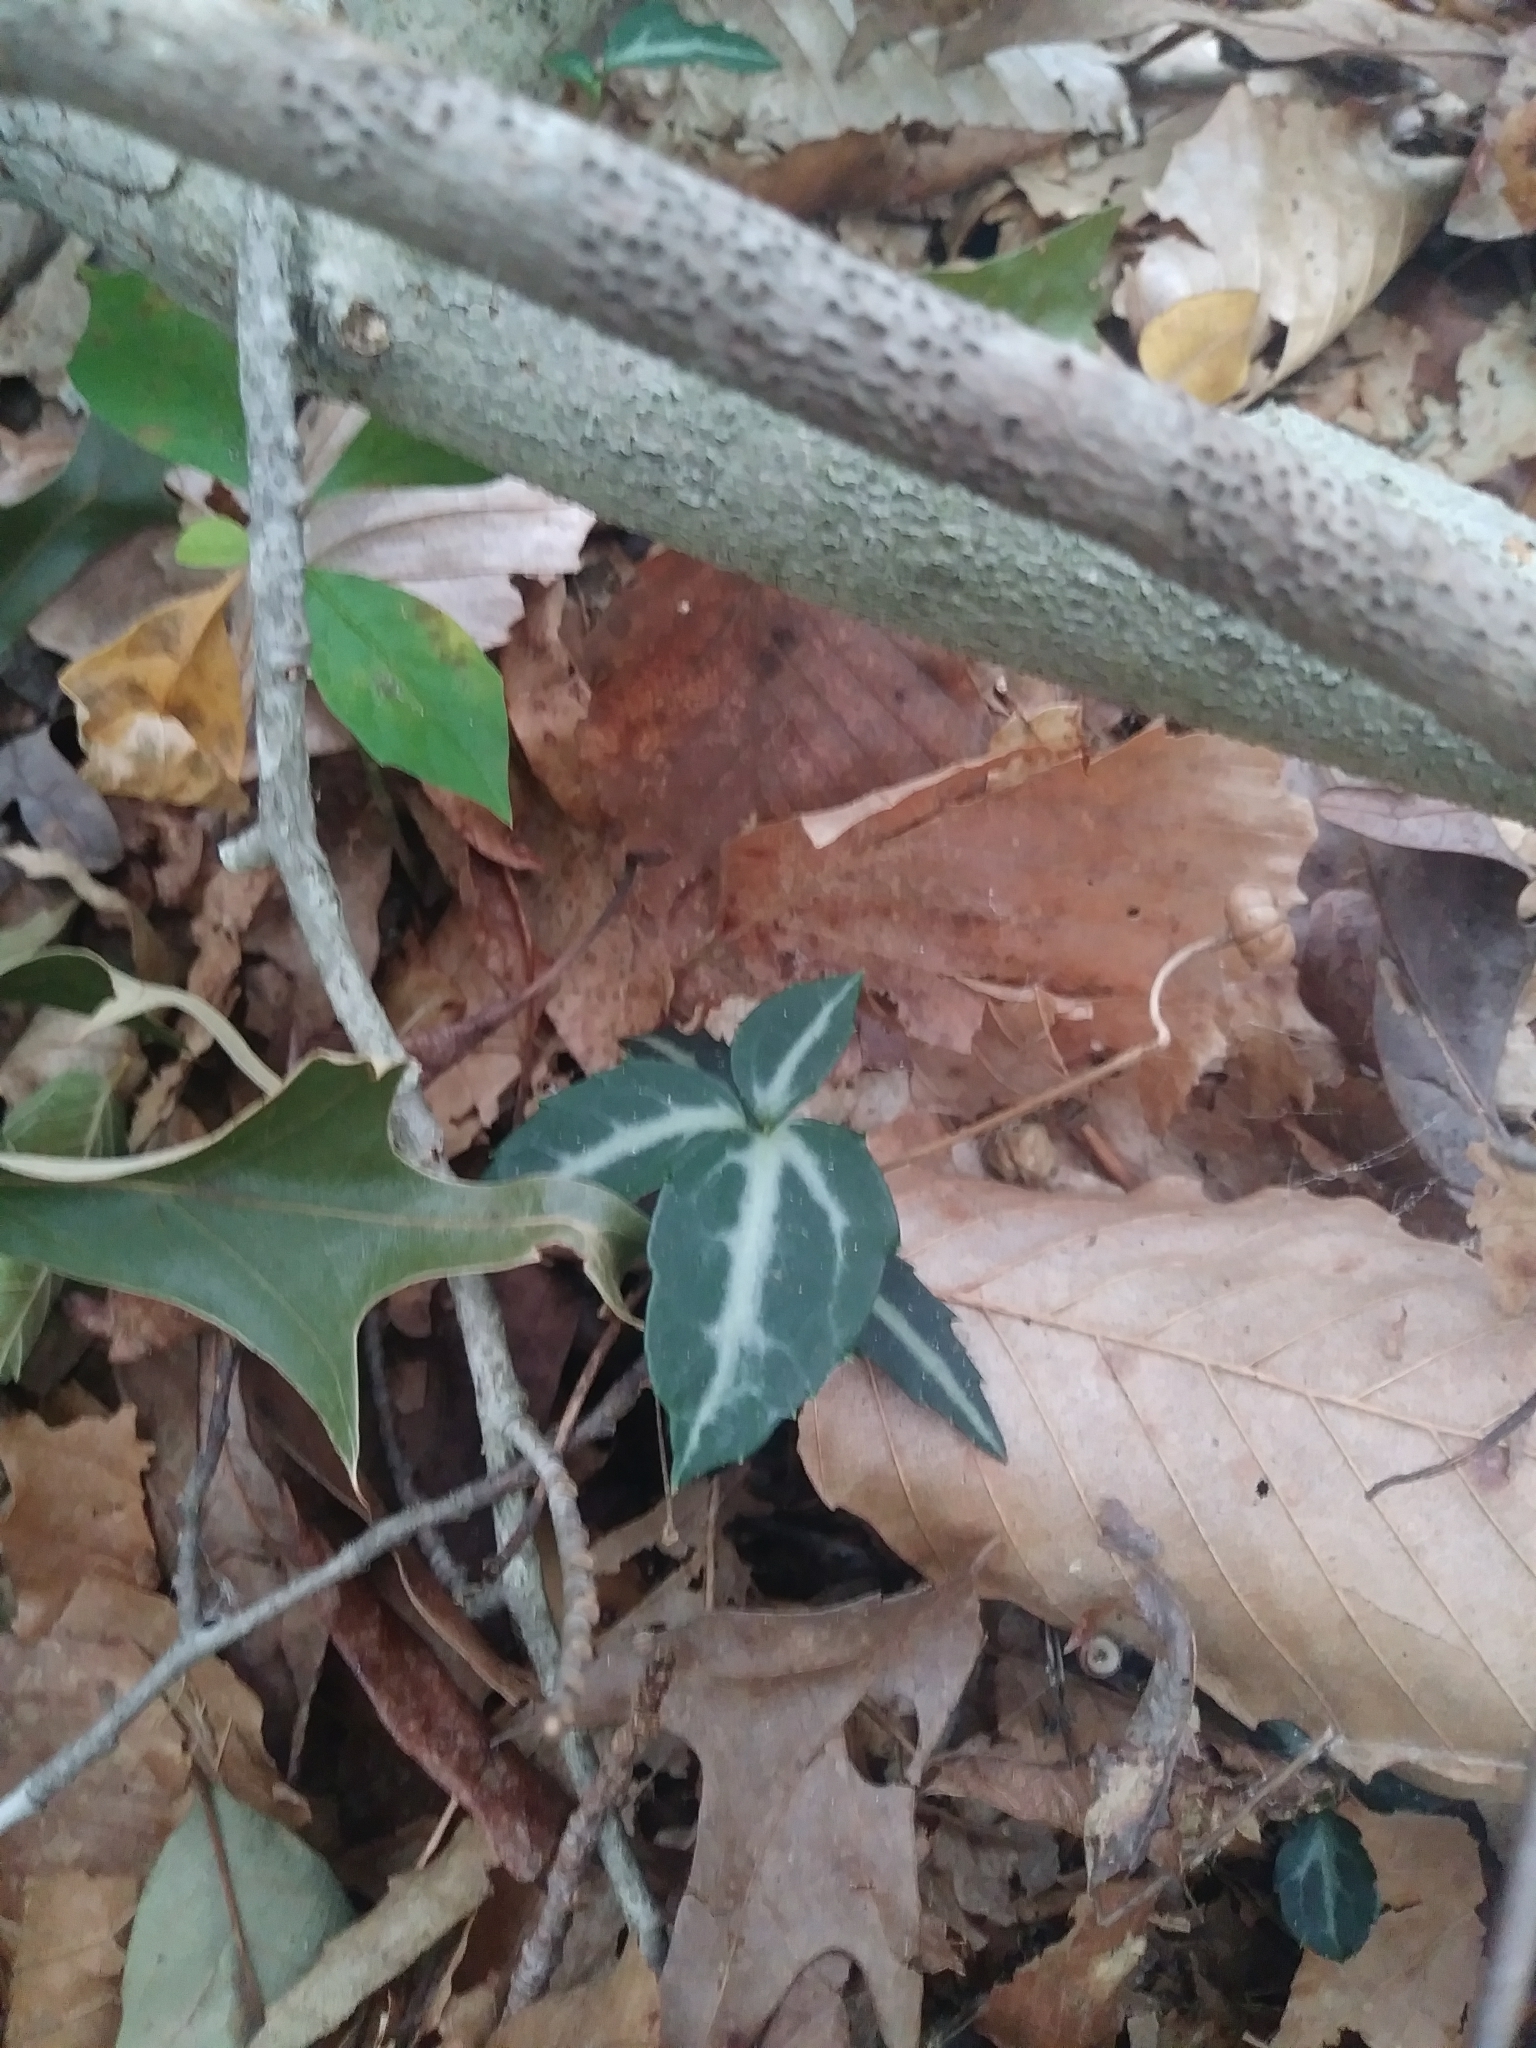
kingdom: Plantae
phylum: Tracheophyta
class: Magnoliopsida
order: Ericales
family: Ericaceae
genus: Chimaphila
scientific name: Chimaphila maculata
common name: Spotted pipsissewa
